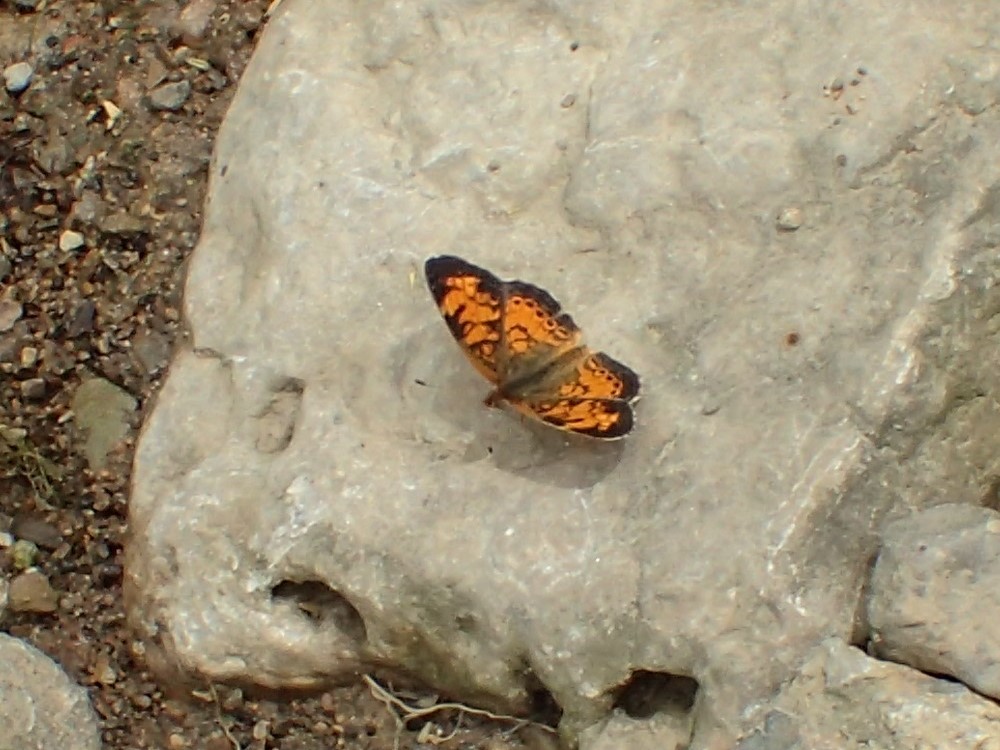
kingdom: Animalia
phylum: Arthropoda
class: Insecta
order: Lepidoptera
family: Nymphalidae
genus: Phyciodes
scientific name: Phyciodes tharos
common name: Pearl crescent
